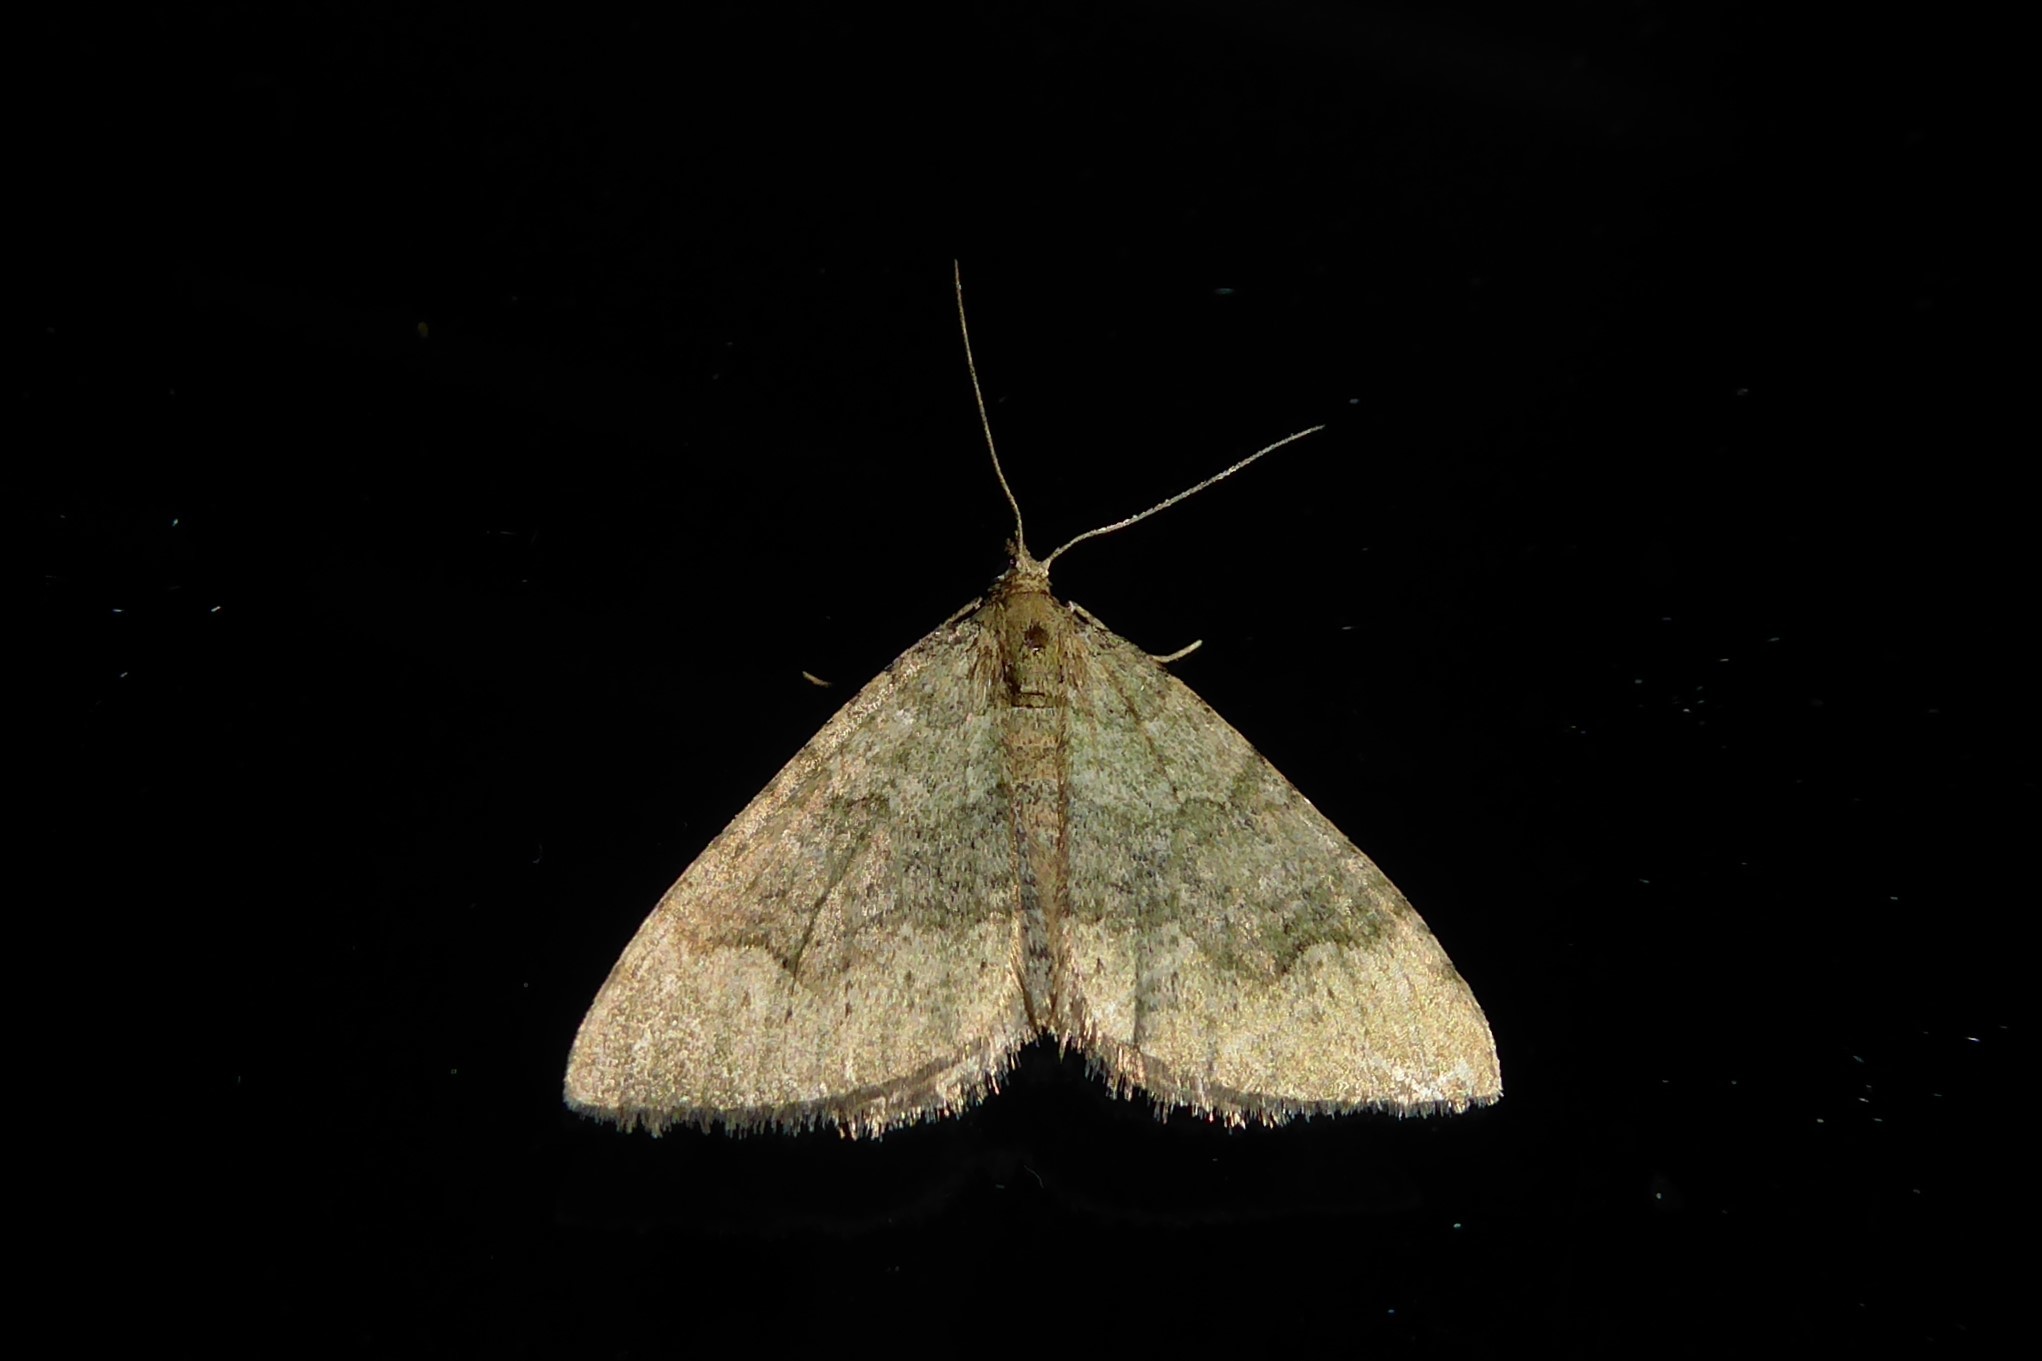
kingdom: Animalia
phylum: Arthropoda
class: Insecta
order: Lepidoptera
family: Geometridae
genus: Epyaxa
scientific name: Epyaxa rosearia
